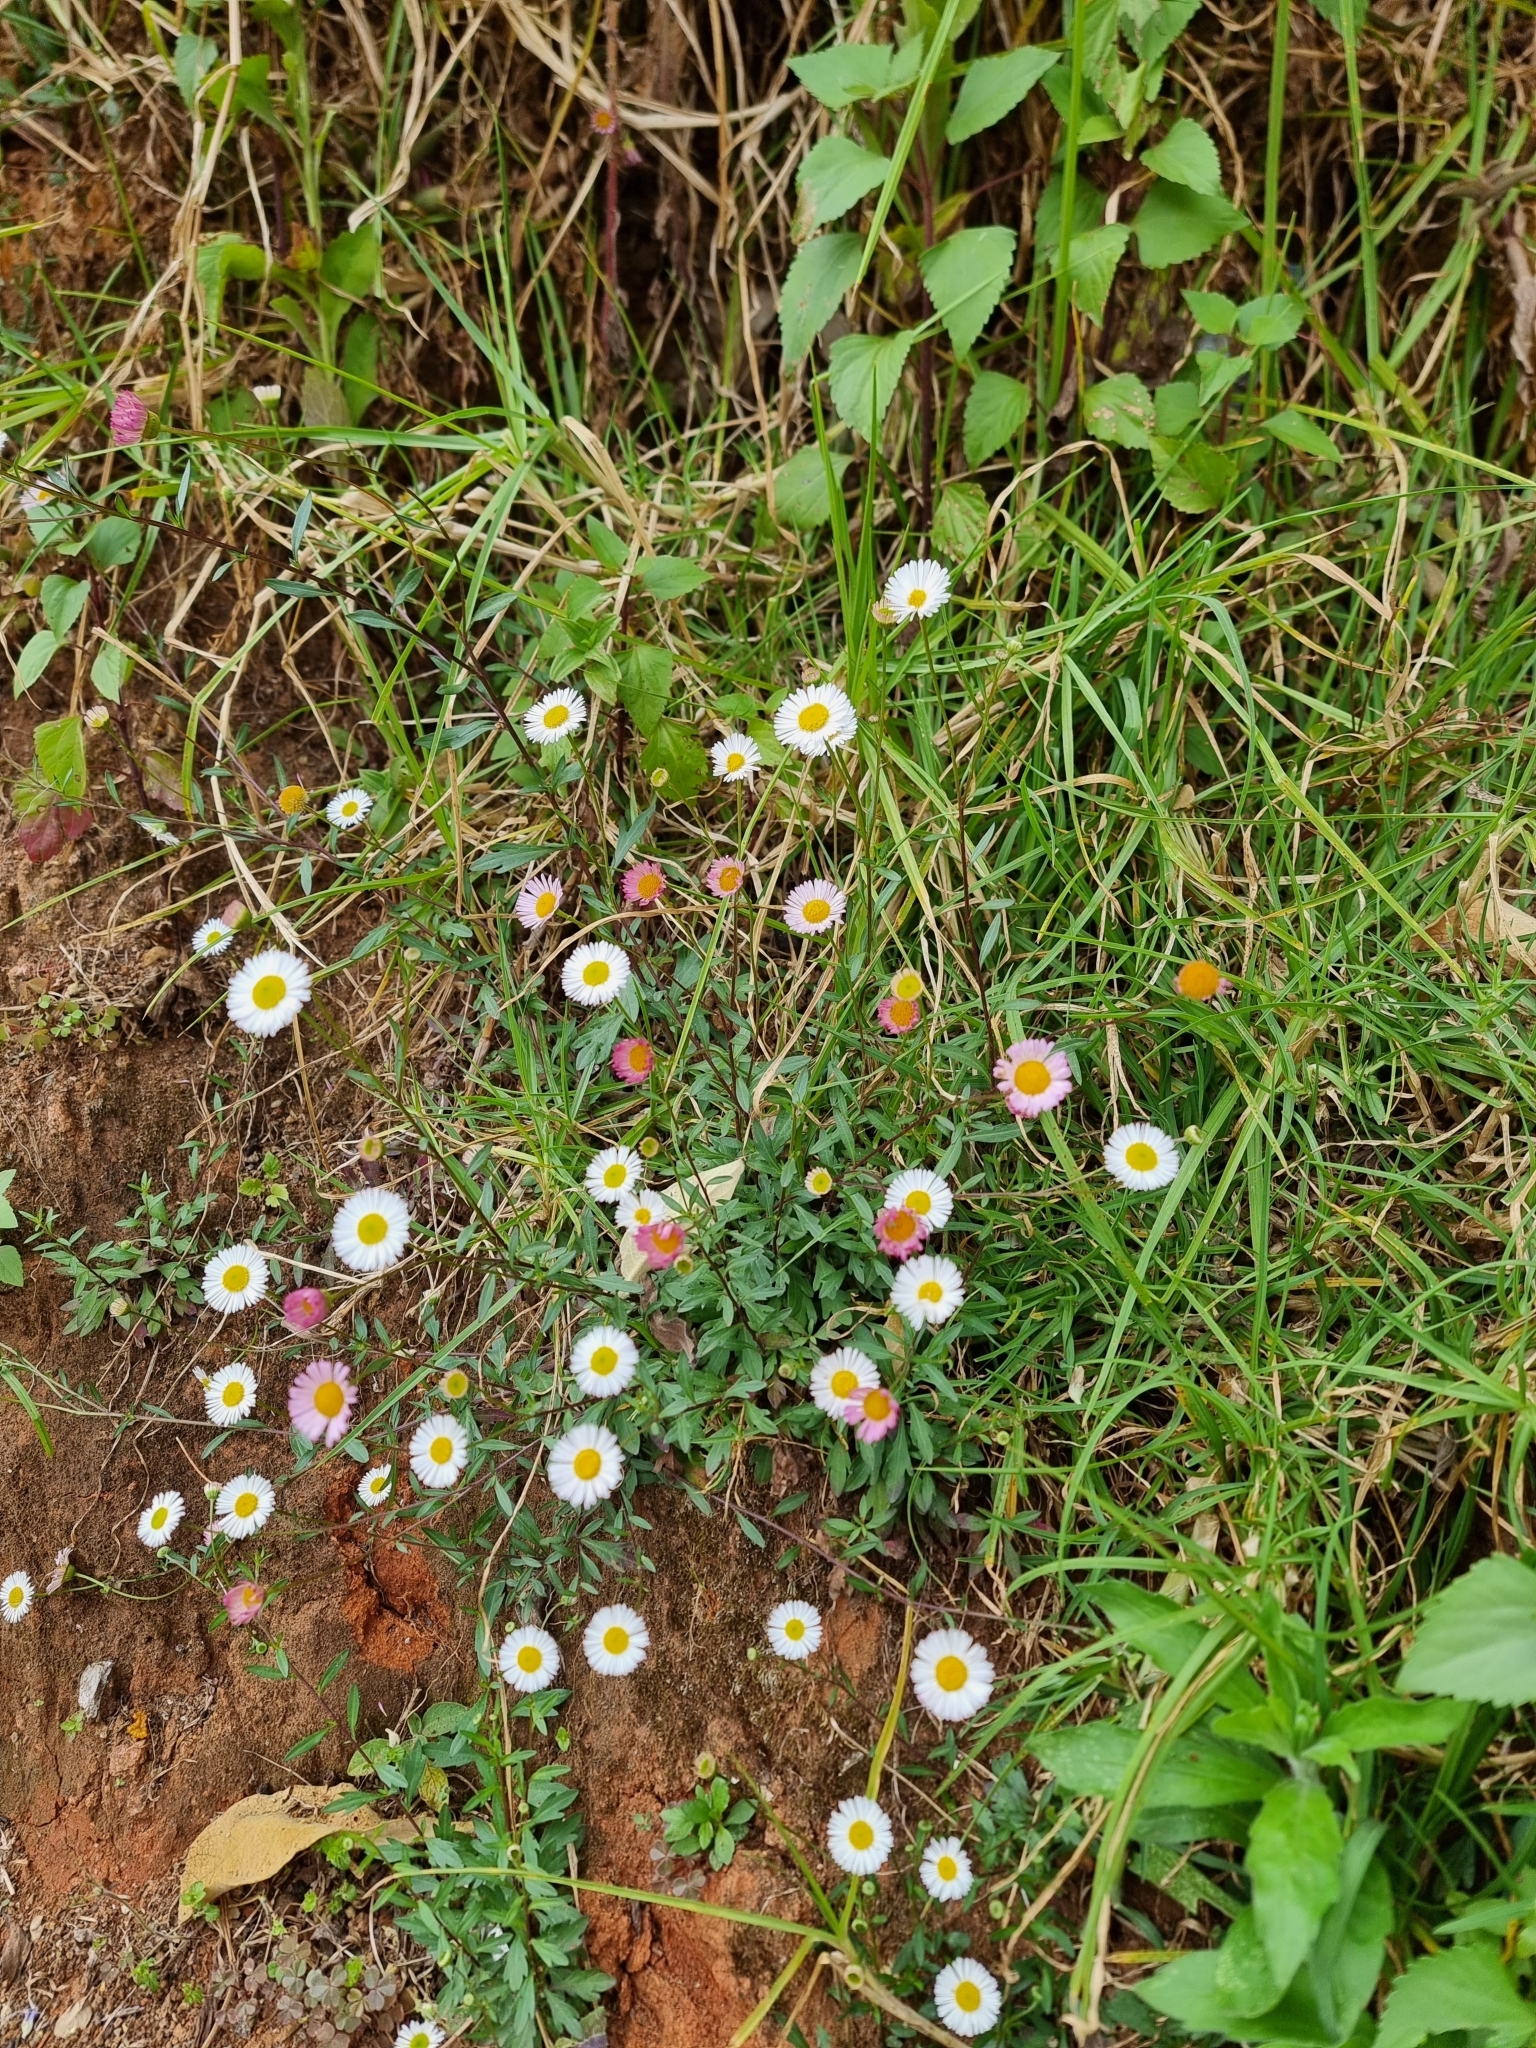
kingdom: Plantae
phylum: Tracheophyta
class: Magnoliopsida
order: Asterales
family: Asteraceae
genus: Erigeron
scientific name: Erigeron karvinskianus
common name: Mexican fleabane
